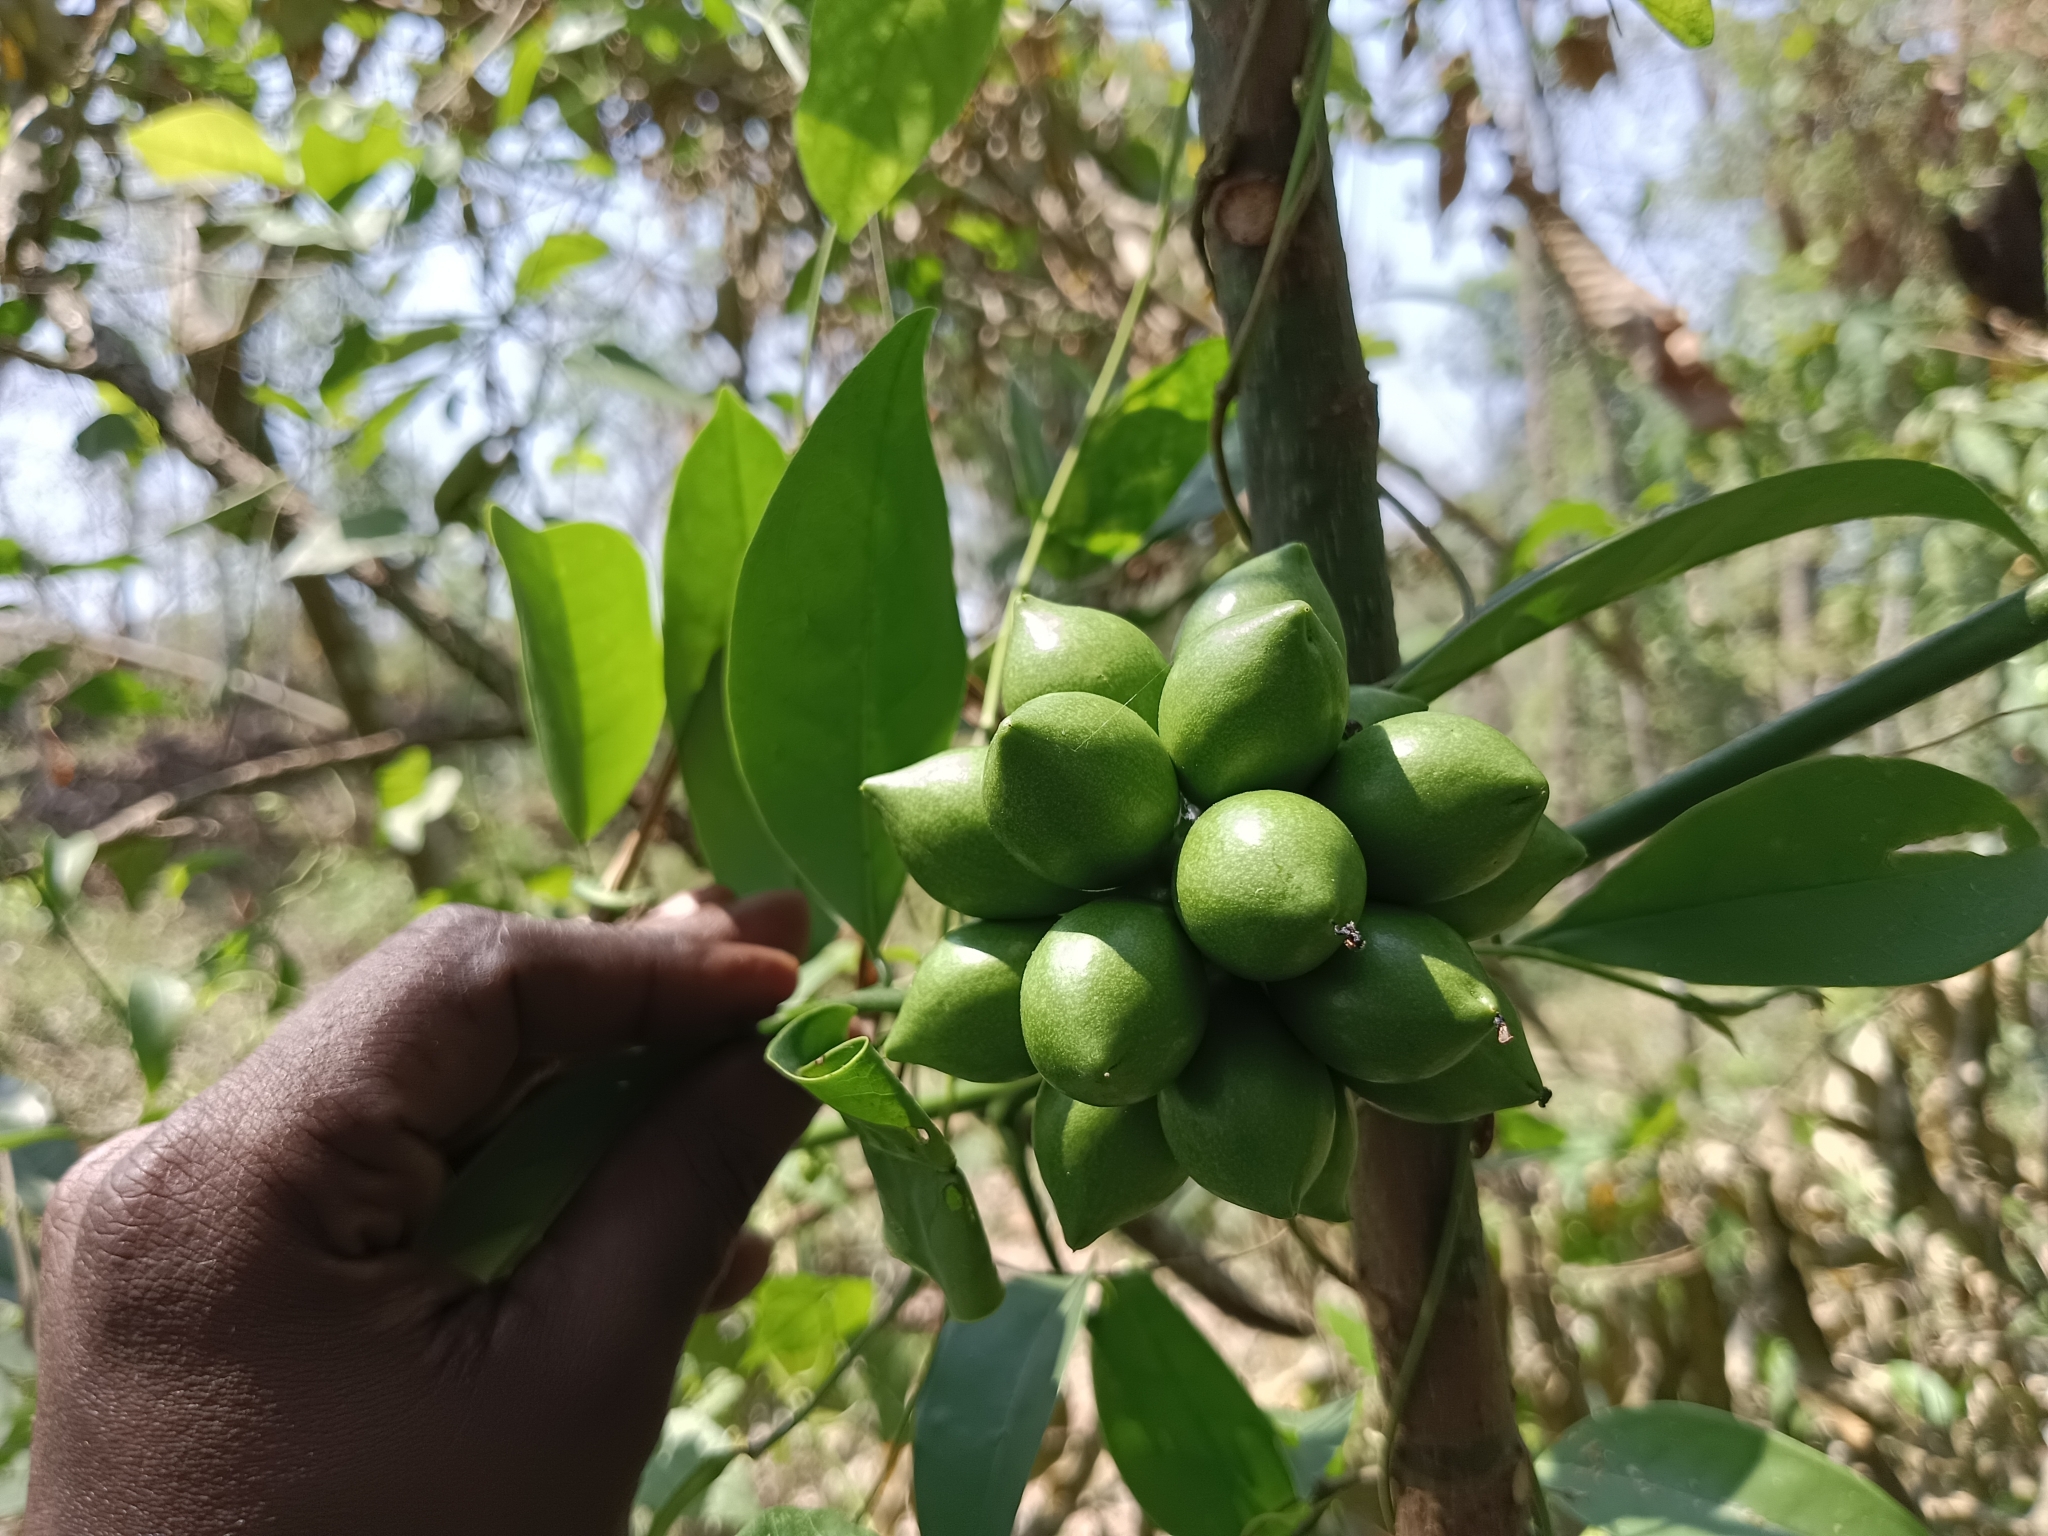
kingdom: Plantae
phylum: Tracheophyta
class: Magnoliopsida
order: Magnoliales
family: Annonaceae
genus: Artabotrys
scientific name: Artabotrys hexapetalus
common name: Climbing ilang-ilang
